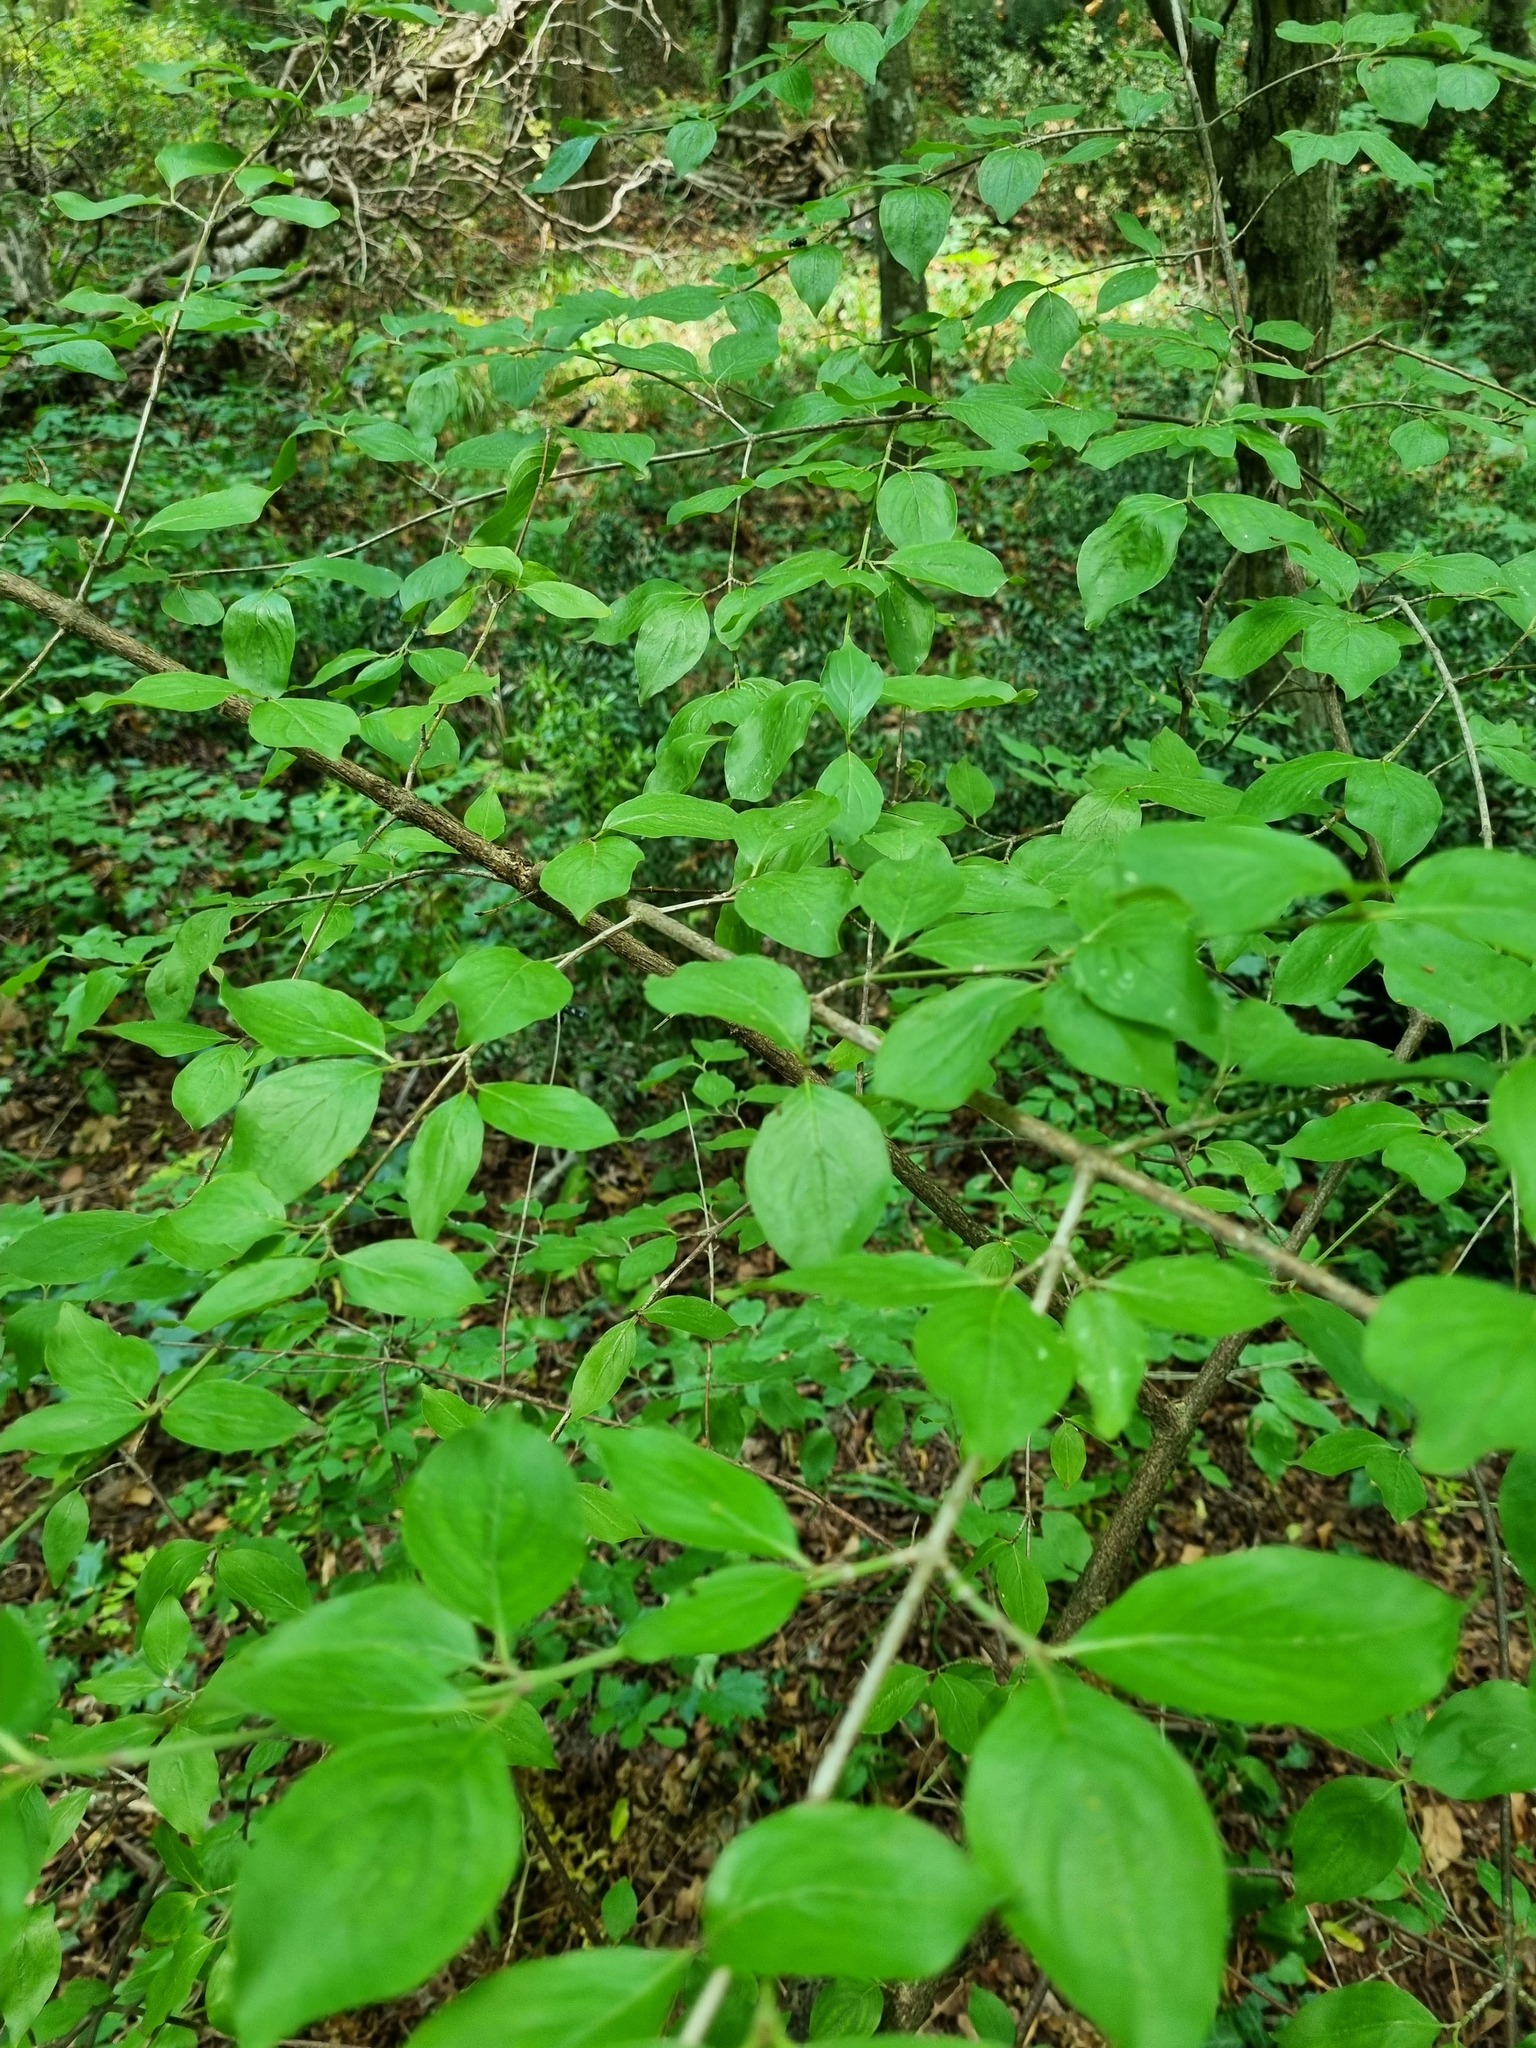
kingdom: Plantae
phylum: Tracheophyta
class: Magnoliopsida
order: Cornales
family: Cornaceae
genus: Cornus
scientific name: Cornus mas
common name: Cornelian-cherry
